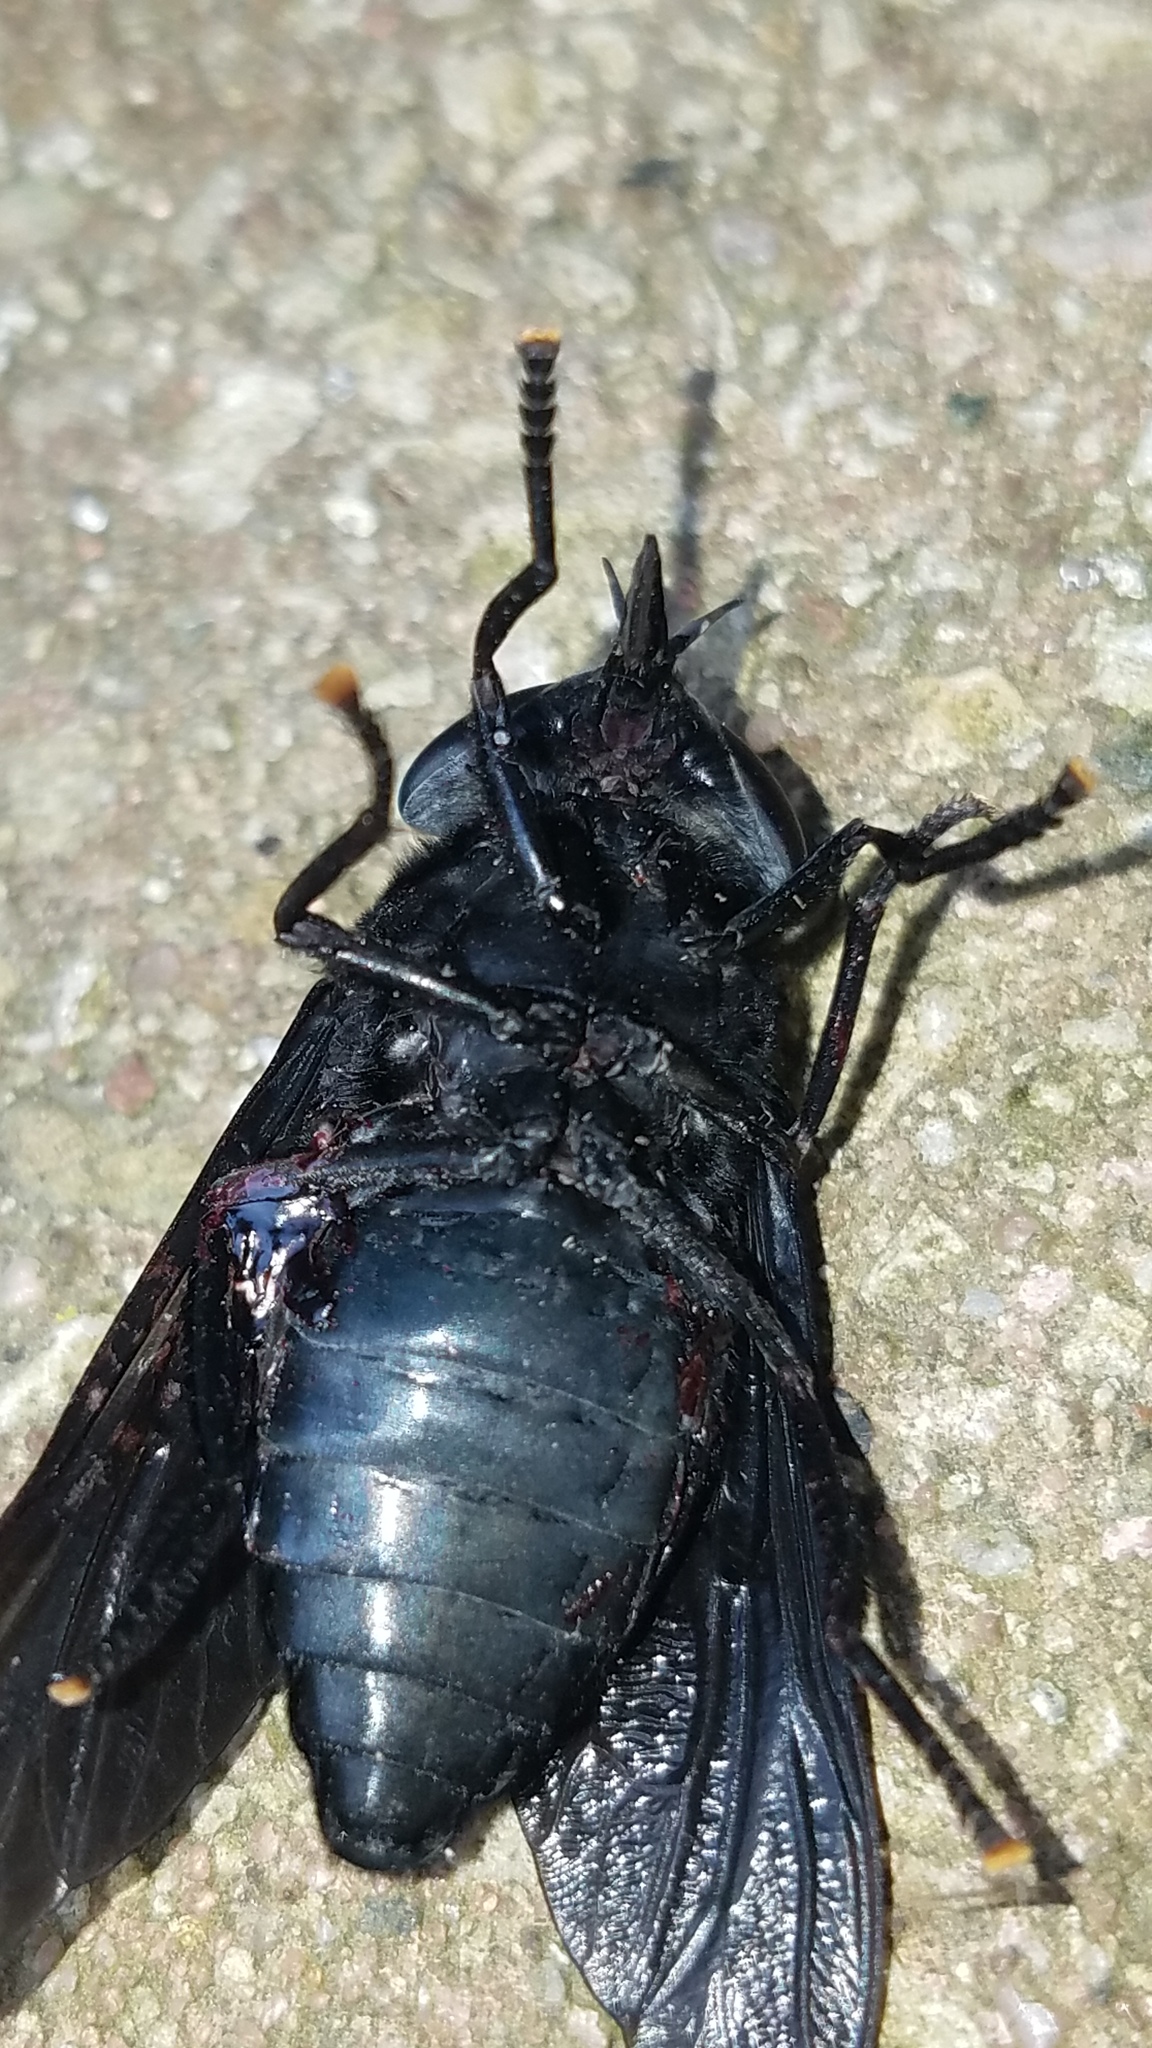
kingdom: Animalia
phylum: Arthropoda
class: Insecta
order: Diptera
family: Tabanidae
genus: Tabanus
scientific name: Tabanus atratus
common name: Black horse fly
